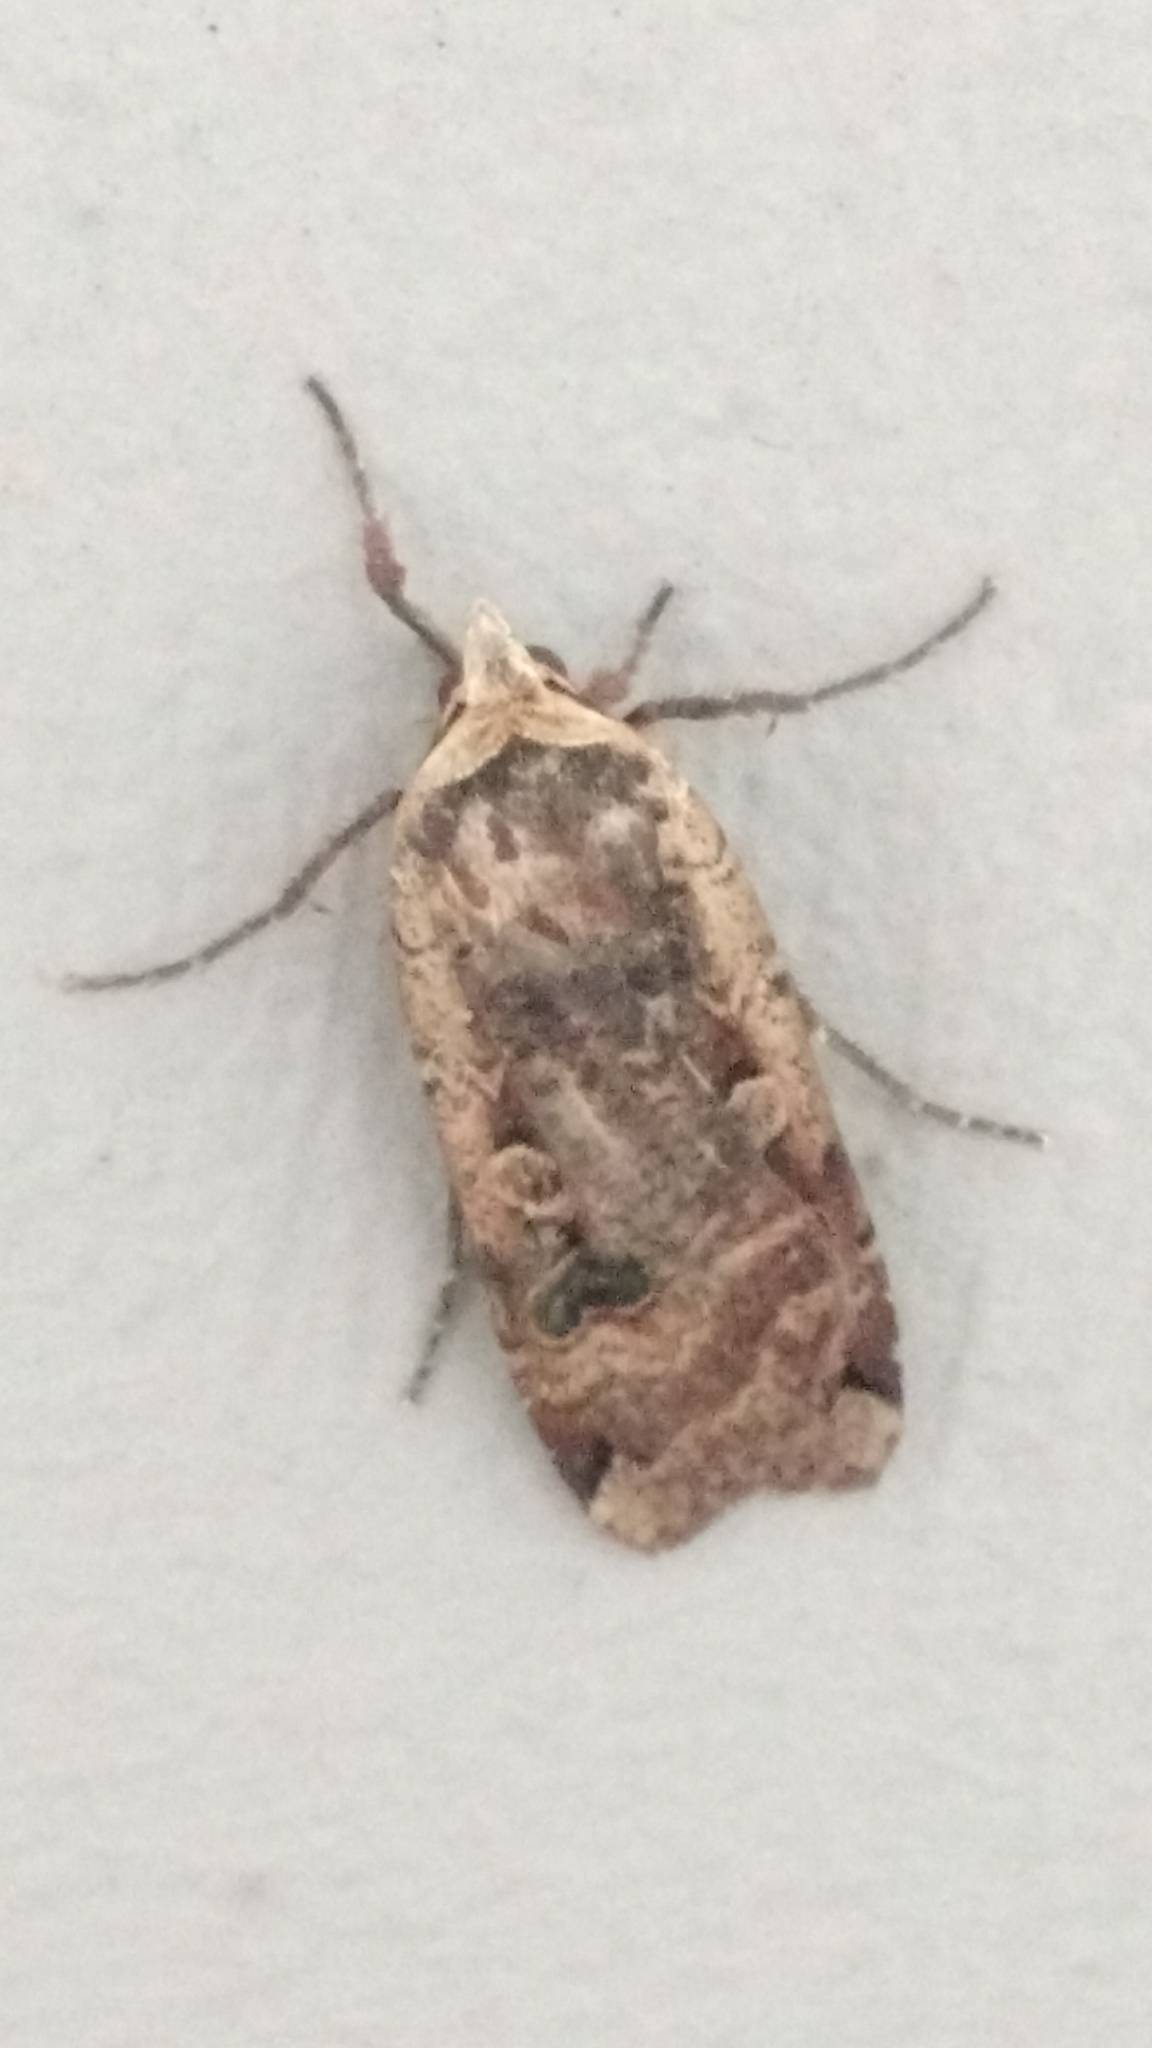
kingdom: Animalia
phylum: Arthropoda
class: Insecta
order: Lepidoptera
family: Noctuidae
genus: Noctua
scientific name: Noctua pronuba
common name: Large yellow underwing
